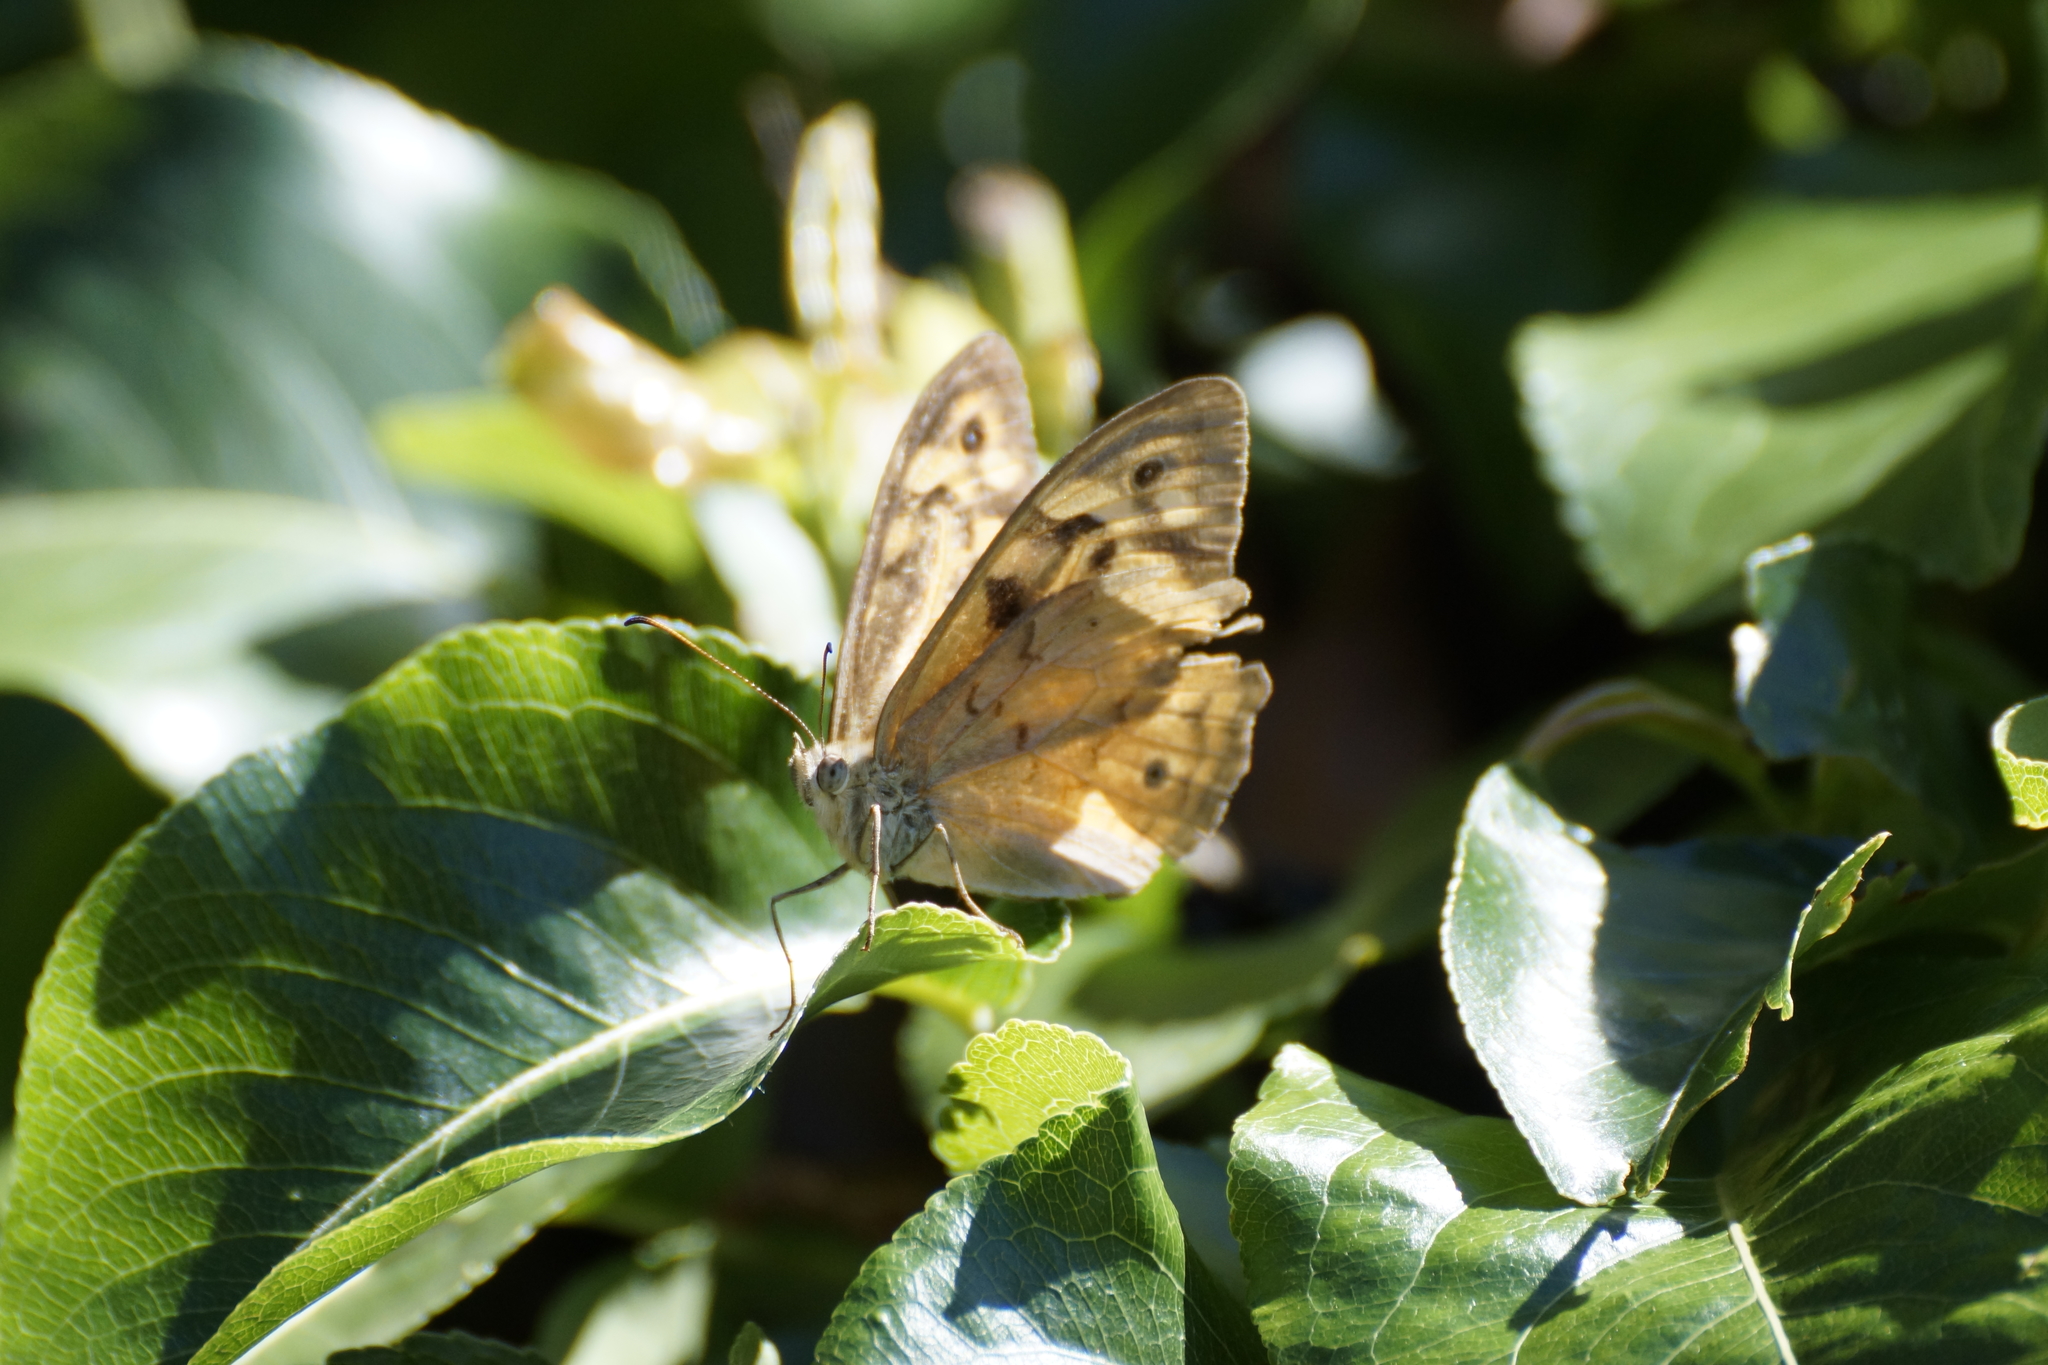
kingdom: Animalia
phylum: Arthropoda
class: Insecta
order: Lepidoptera
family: Nymphalidae
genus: Heteronympha
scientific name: Heteronympha merope
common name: Common brown
